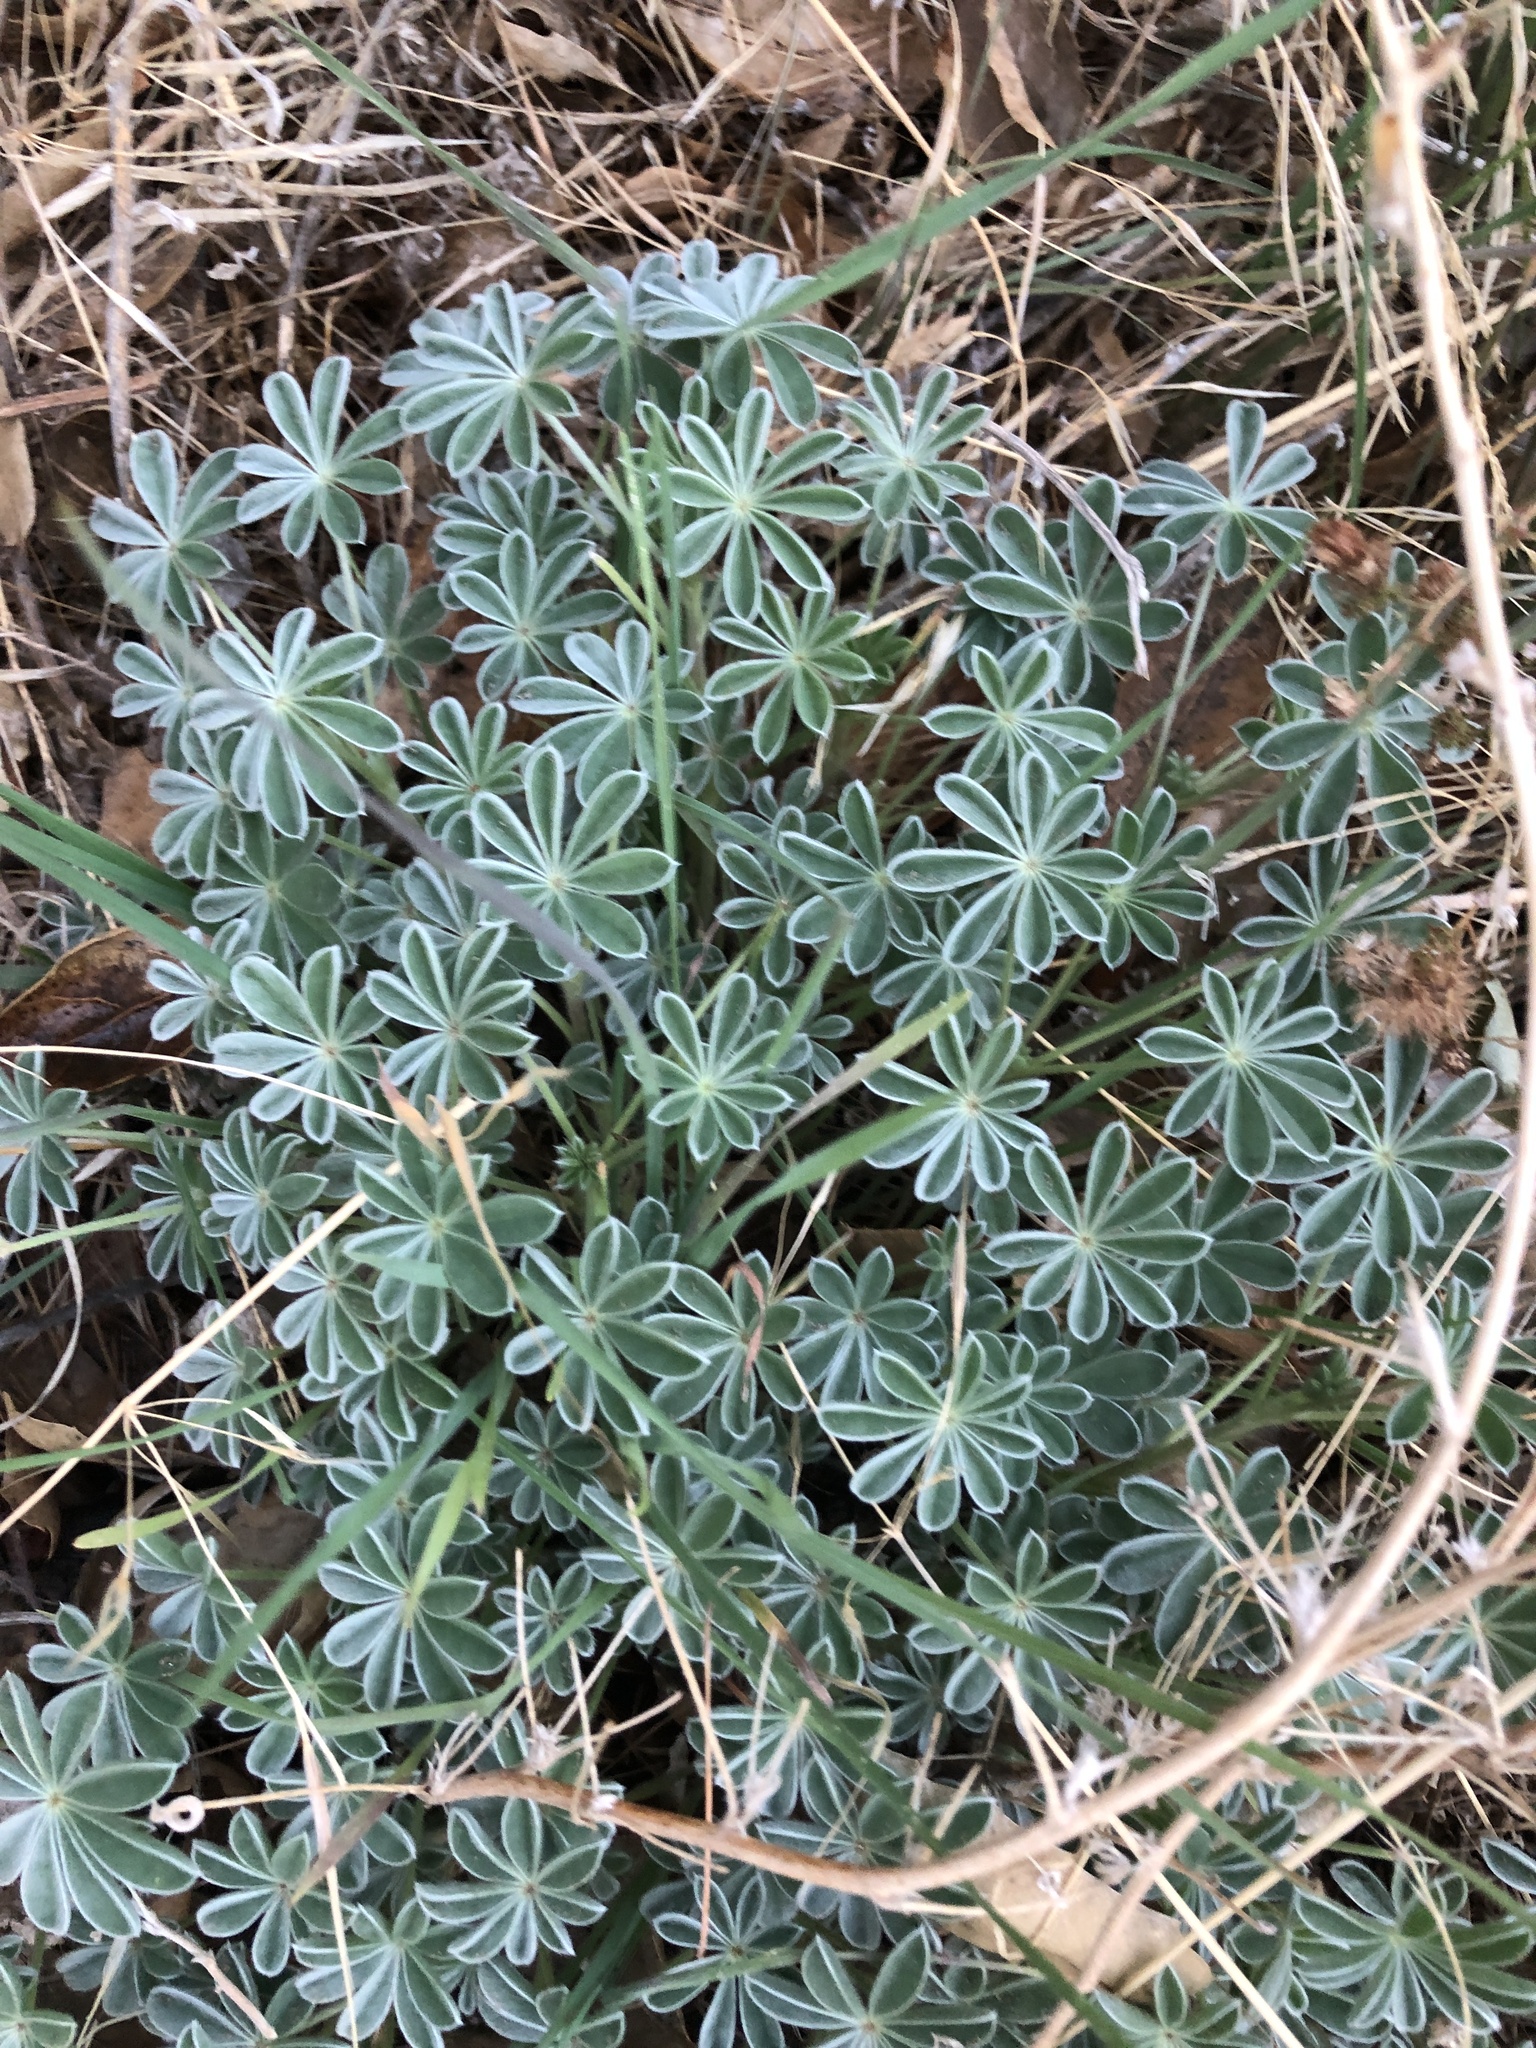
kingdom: Plantae
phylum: Tracheophyta
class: Magnoliopsida
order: Fabales
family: Fabaceae
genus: Lupinus
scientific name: Lupinus excubitus
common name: Grape soda lupine
